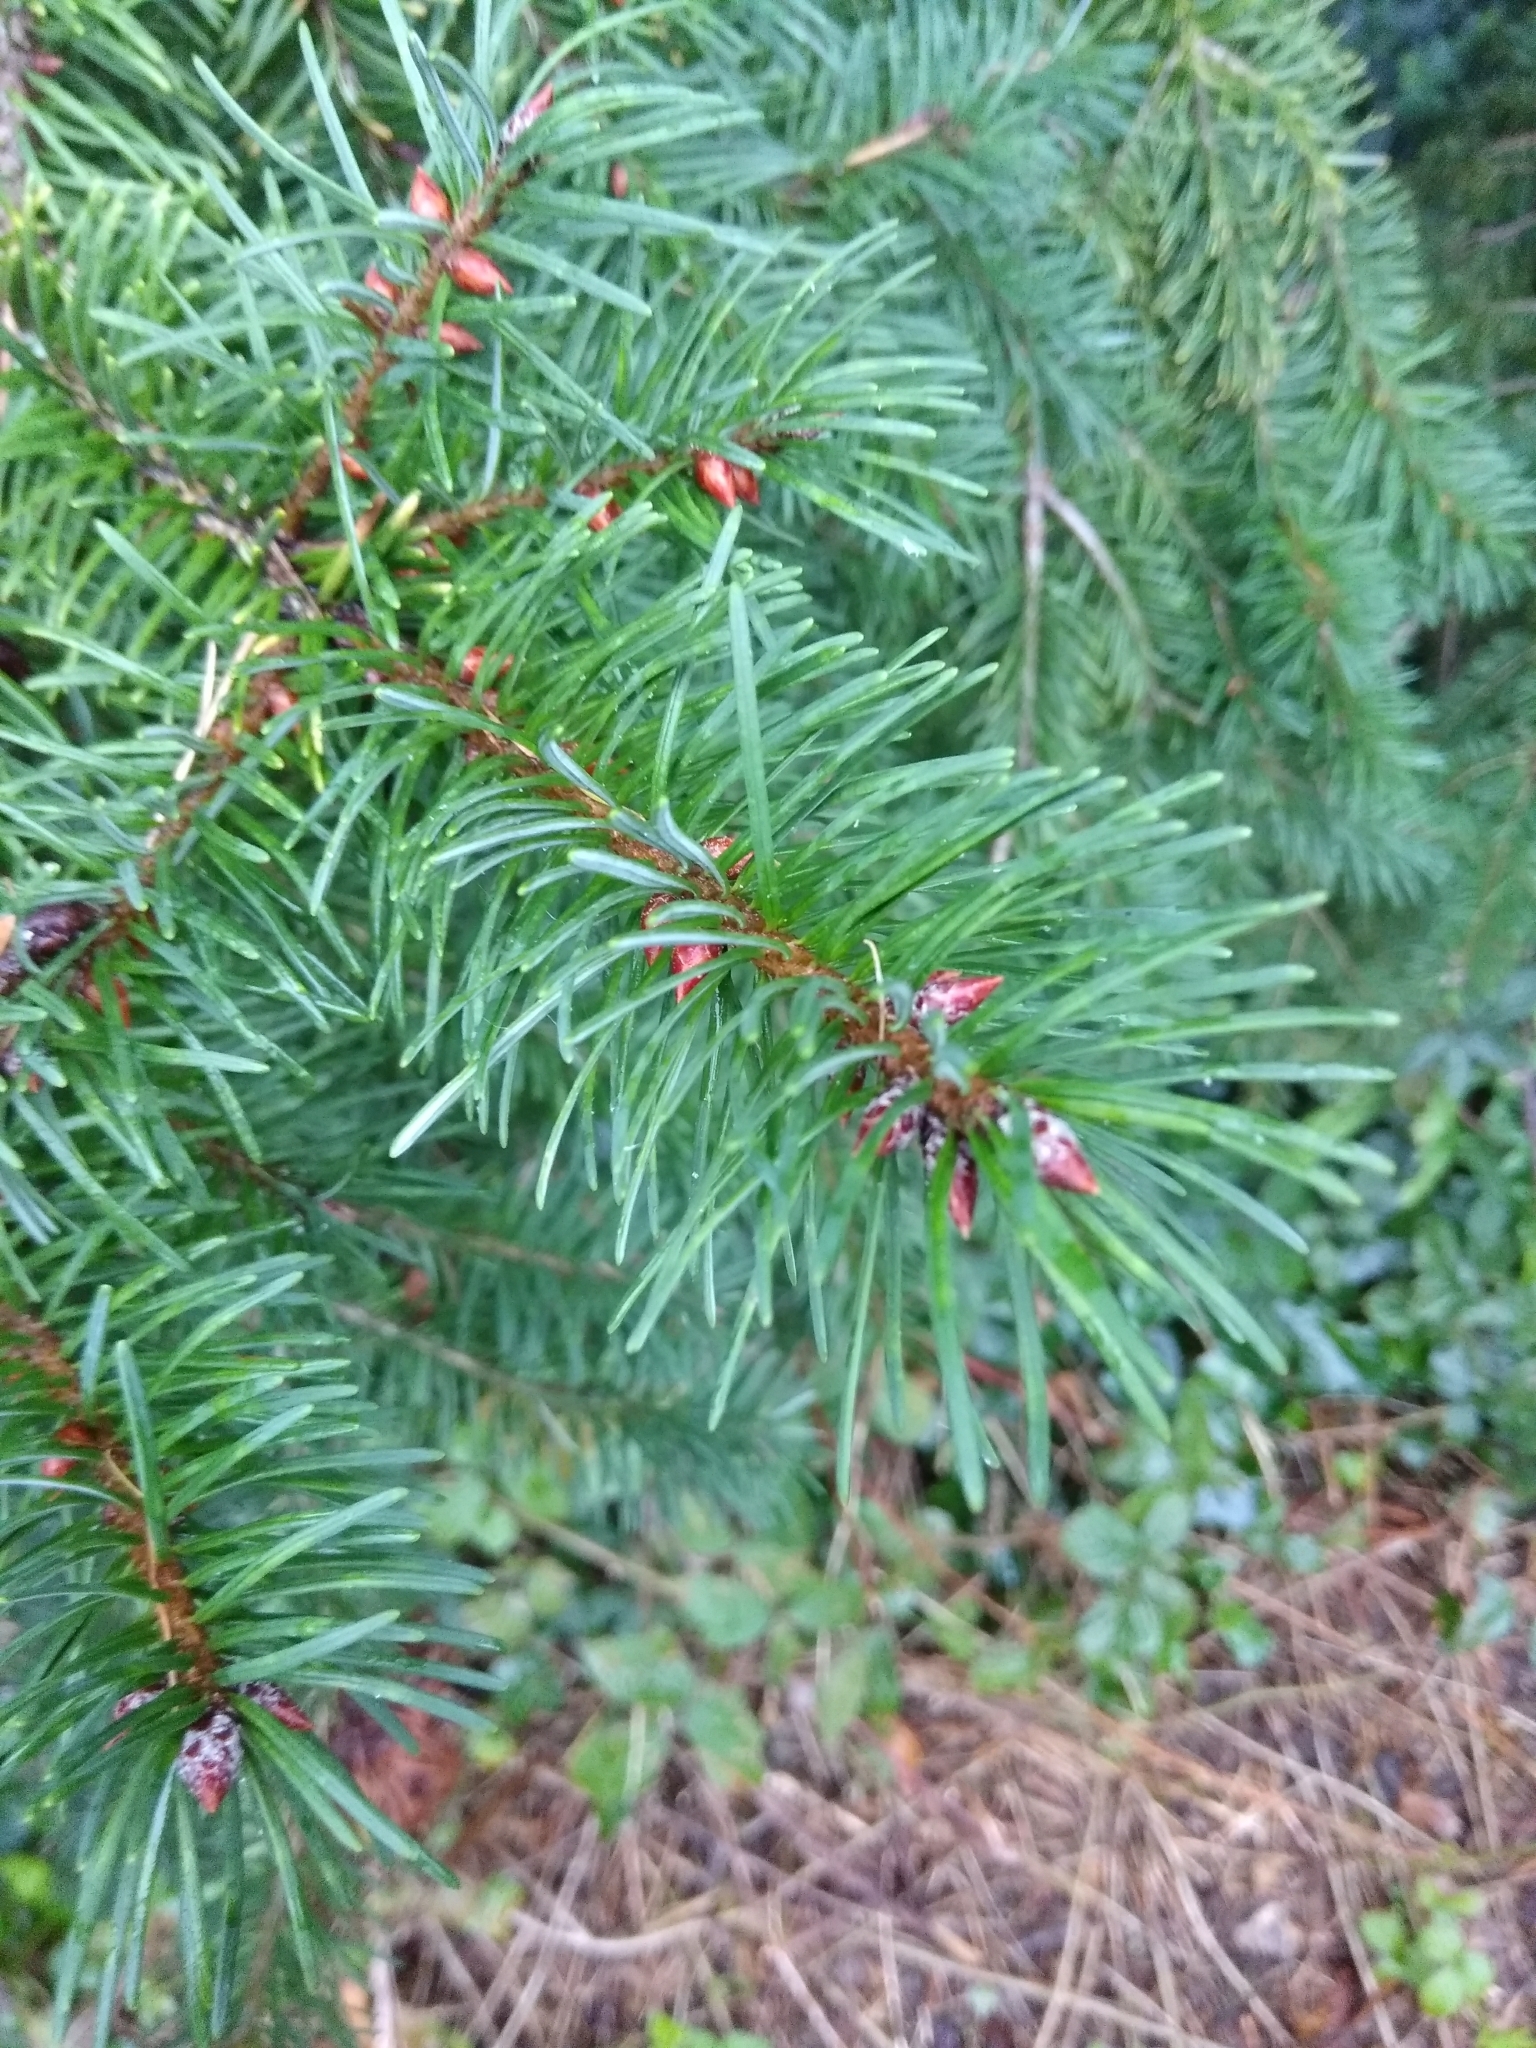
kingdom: Plantae
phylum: Tracheophyta
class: Pinopsida
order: Pinales
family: Pinaceae
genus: Pseudotsuga
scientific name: Pseudotsuga menziesii
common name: Douglas fir
